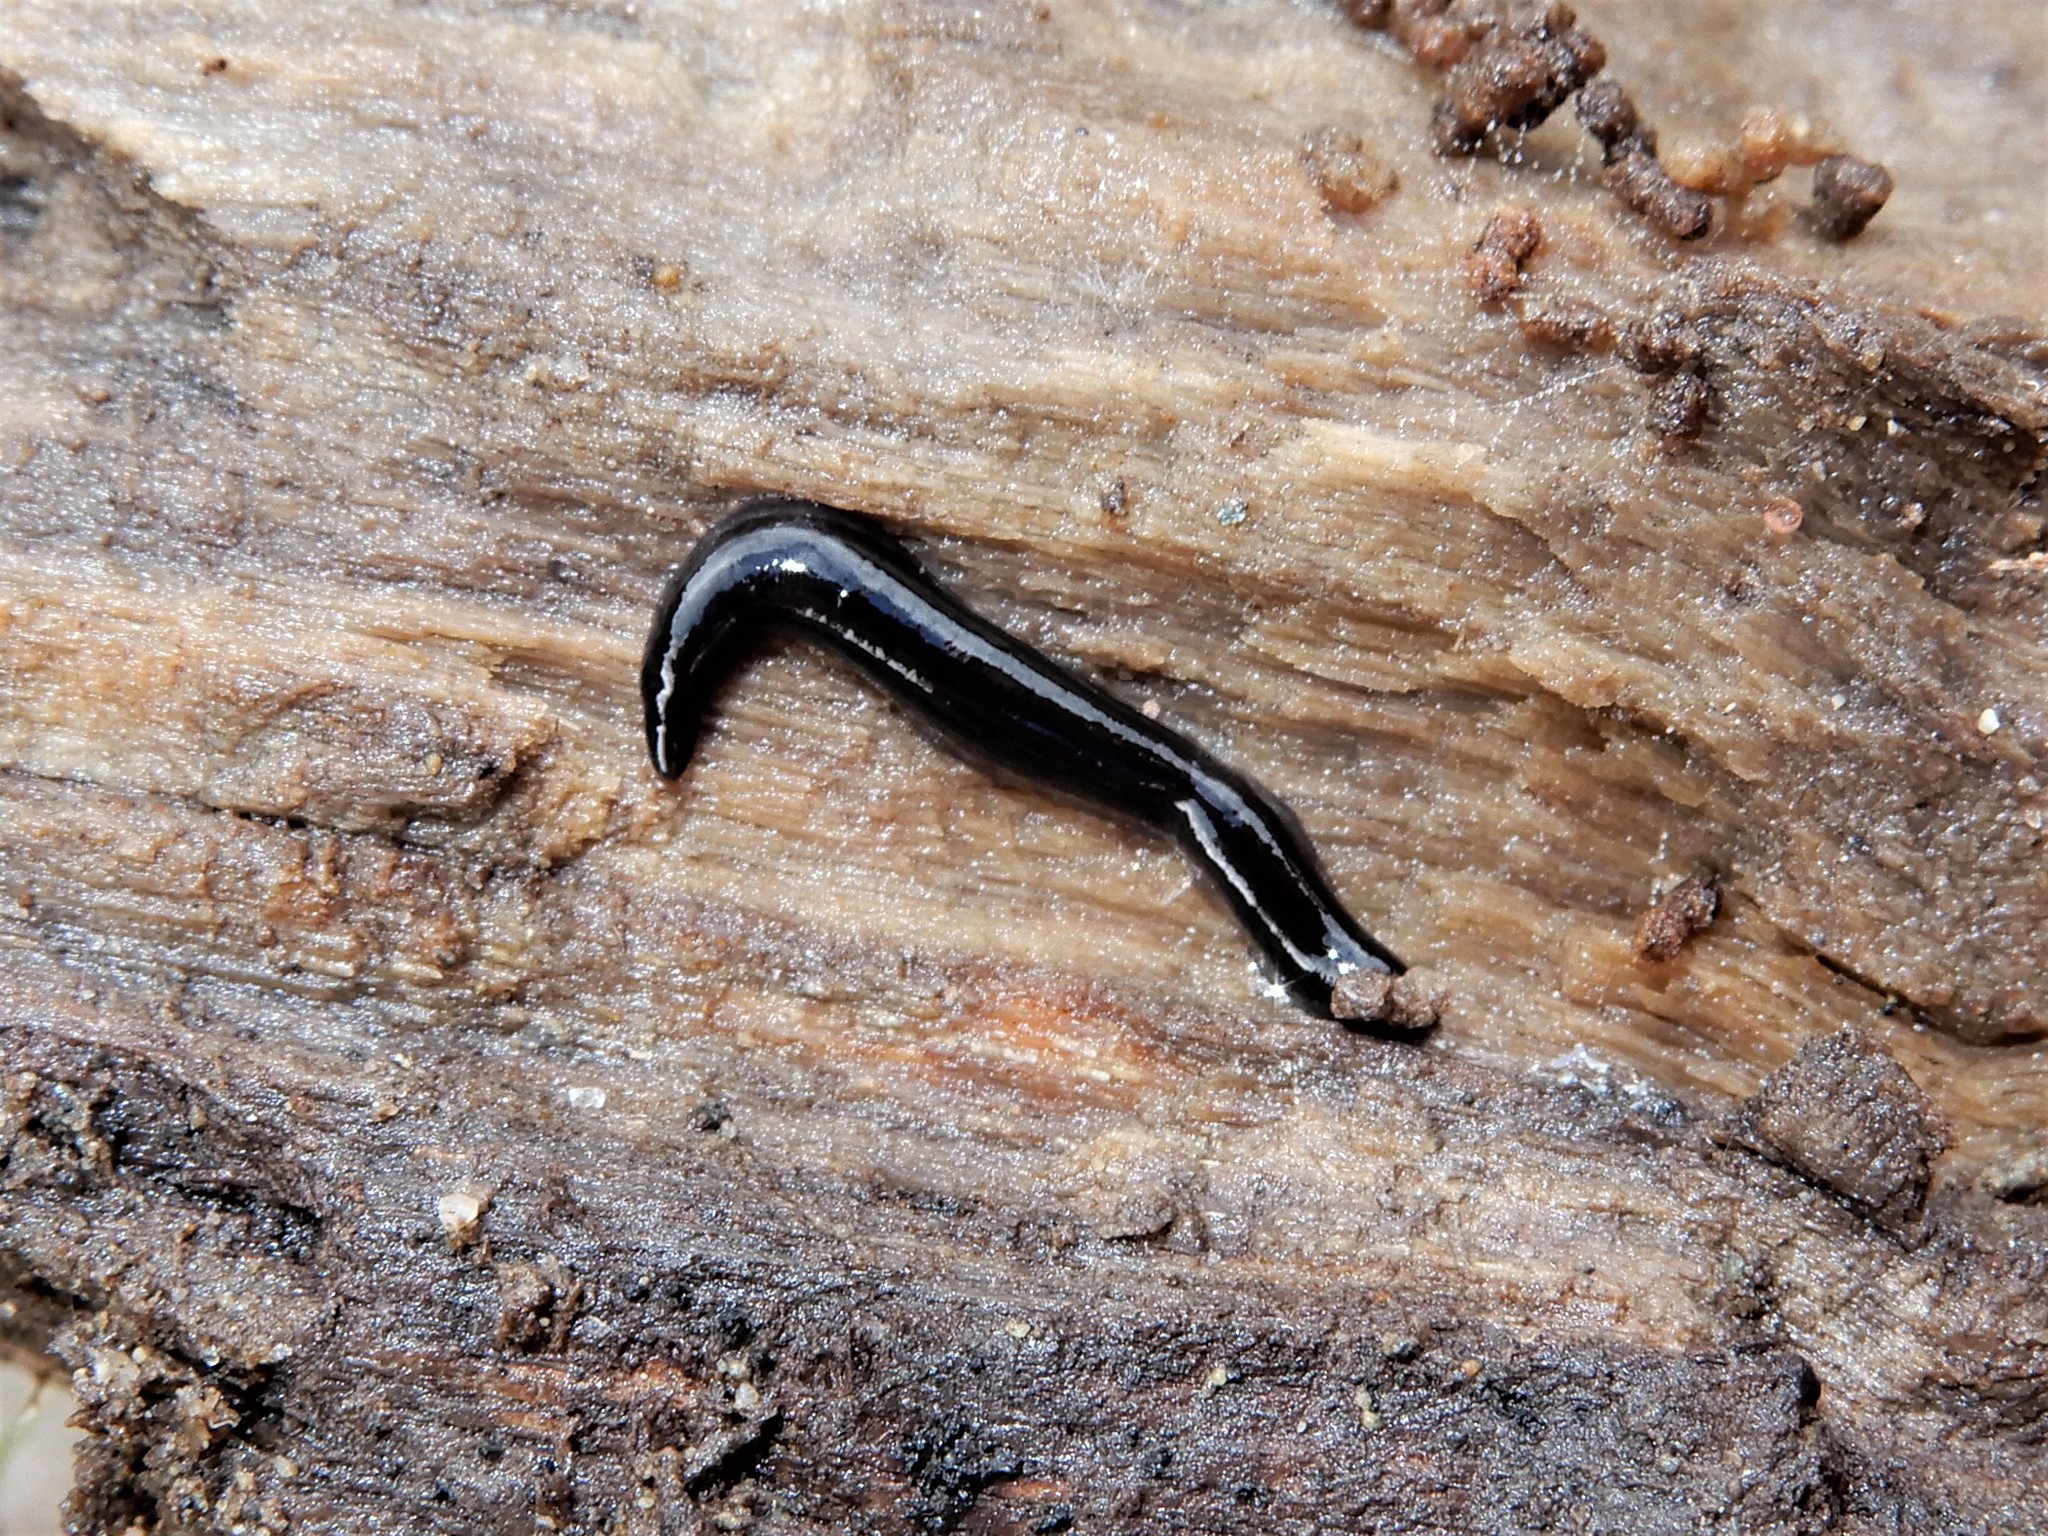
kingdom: Animalia
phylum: Platyhelminthes
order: Tricladida
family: Geoplanidae
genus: Parakontikia
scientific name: Parakontikia ventrolineata
